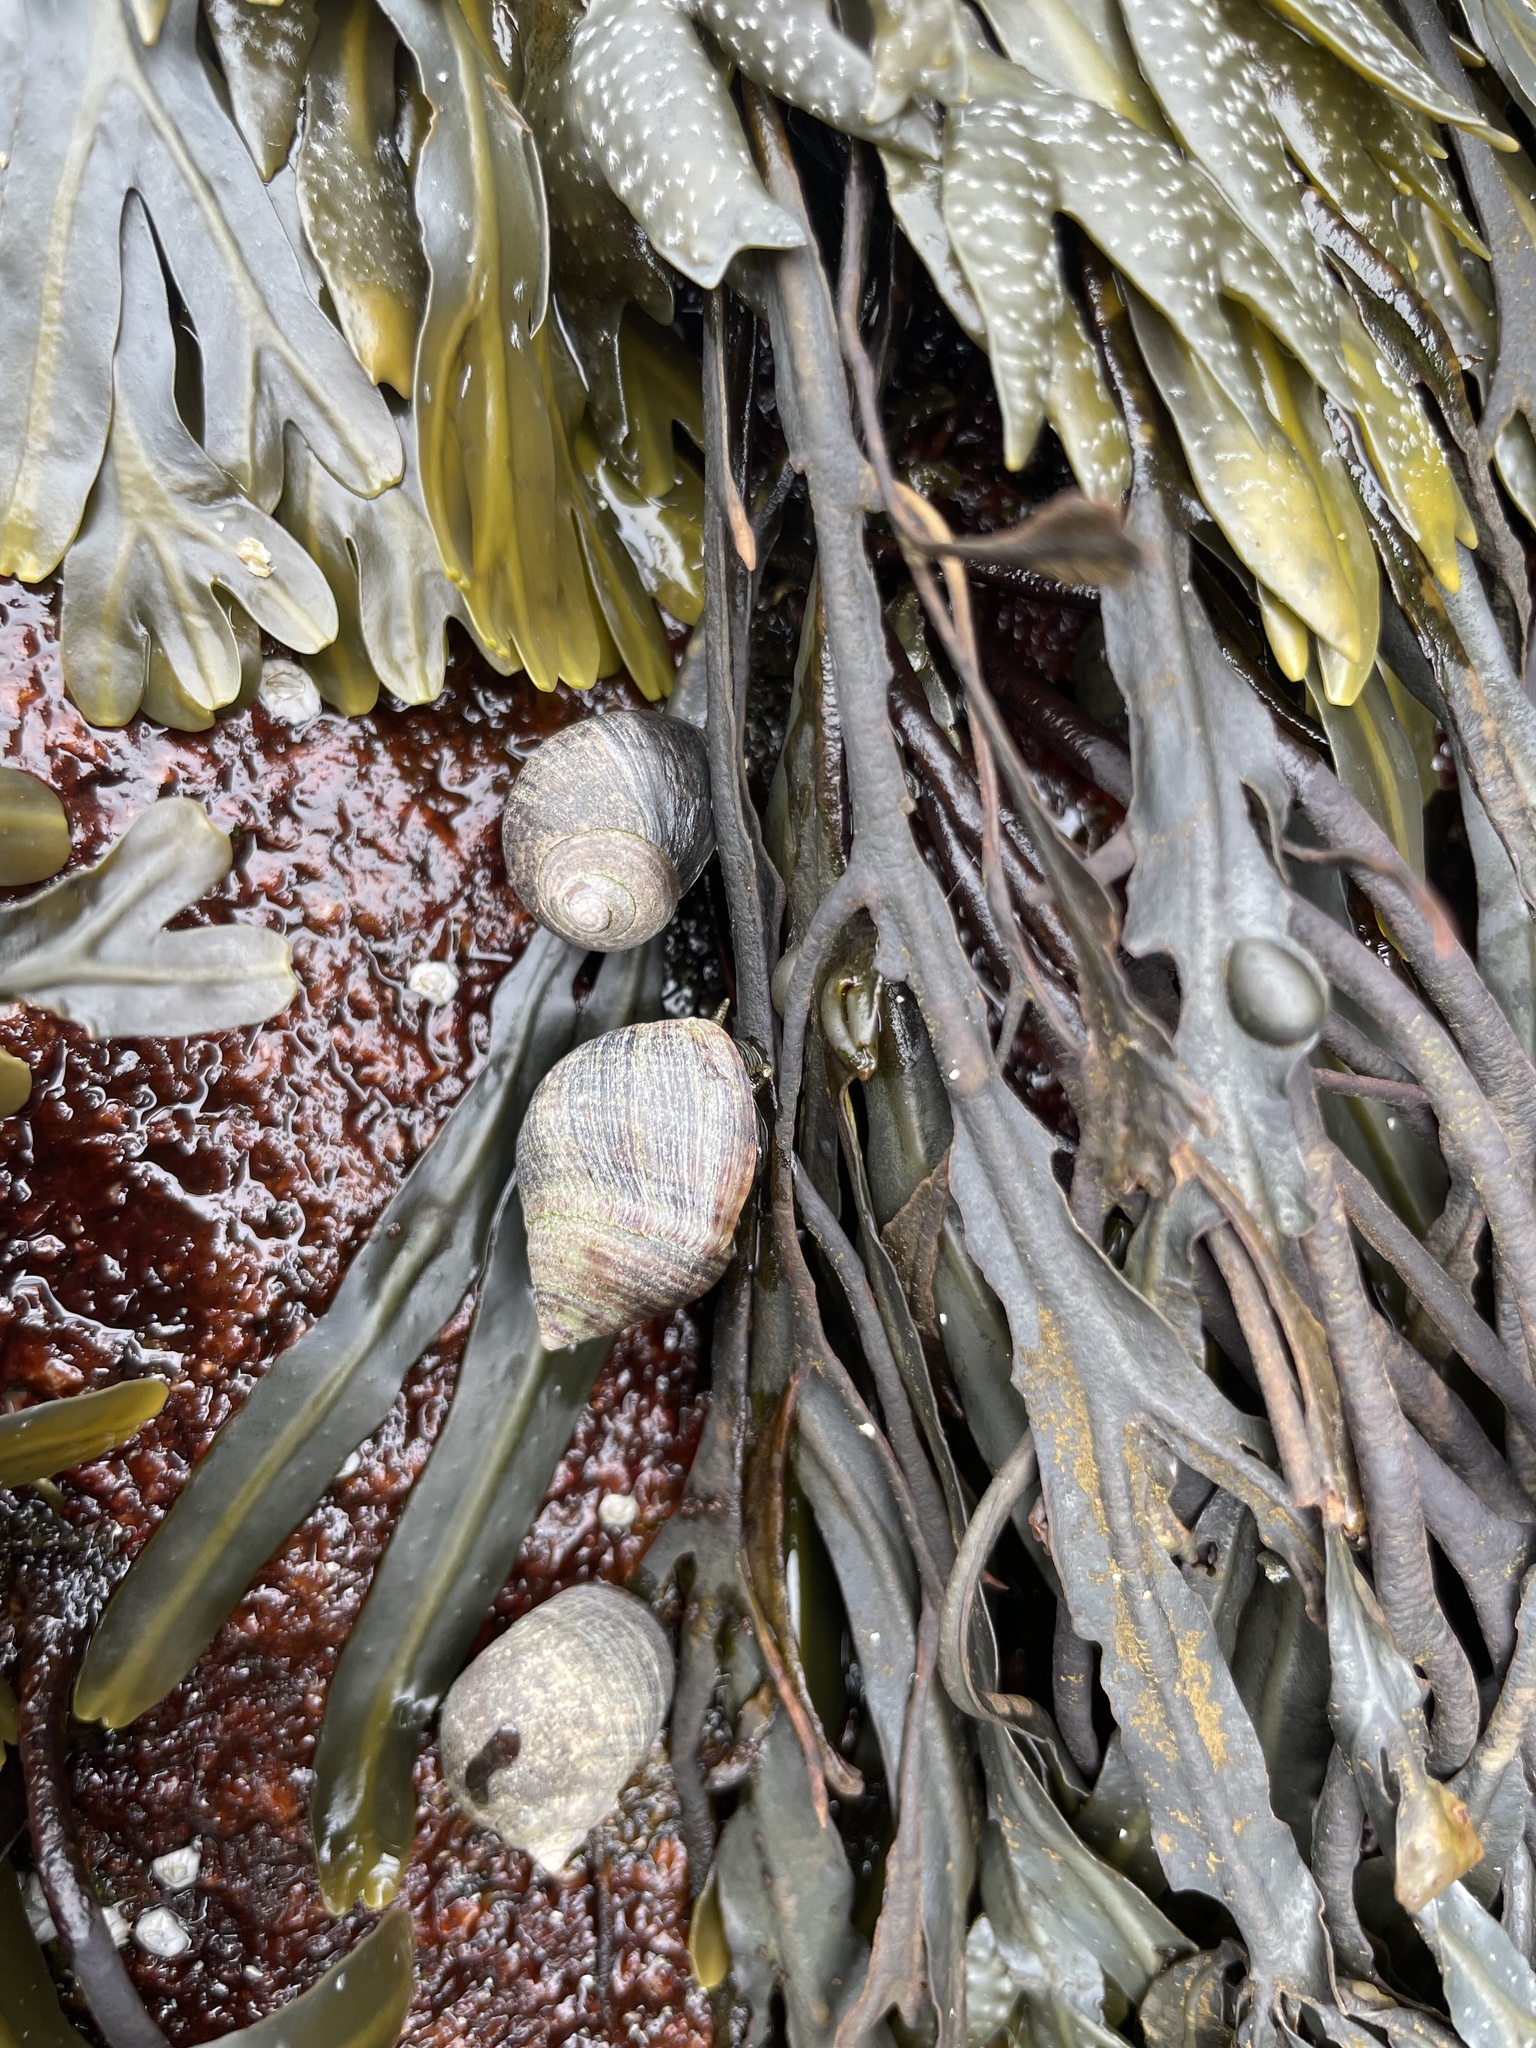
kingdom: Animalia
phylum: Mollusca
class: Gastropoda
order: Littorinimorpha
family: Littorinidae
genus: Littorina
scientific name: Littorina littorea
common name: Common periwinkle
